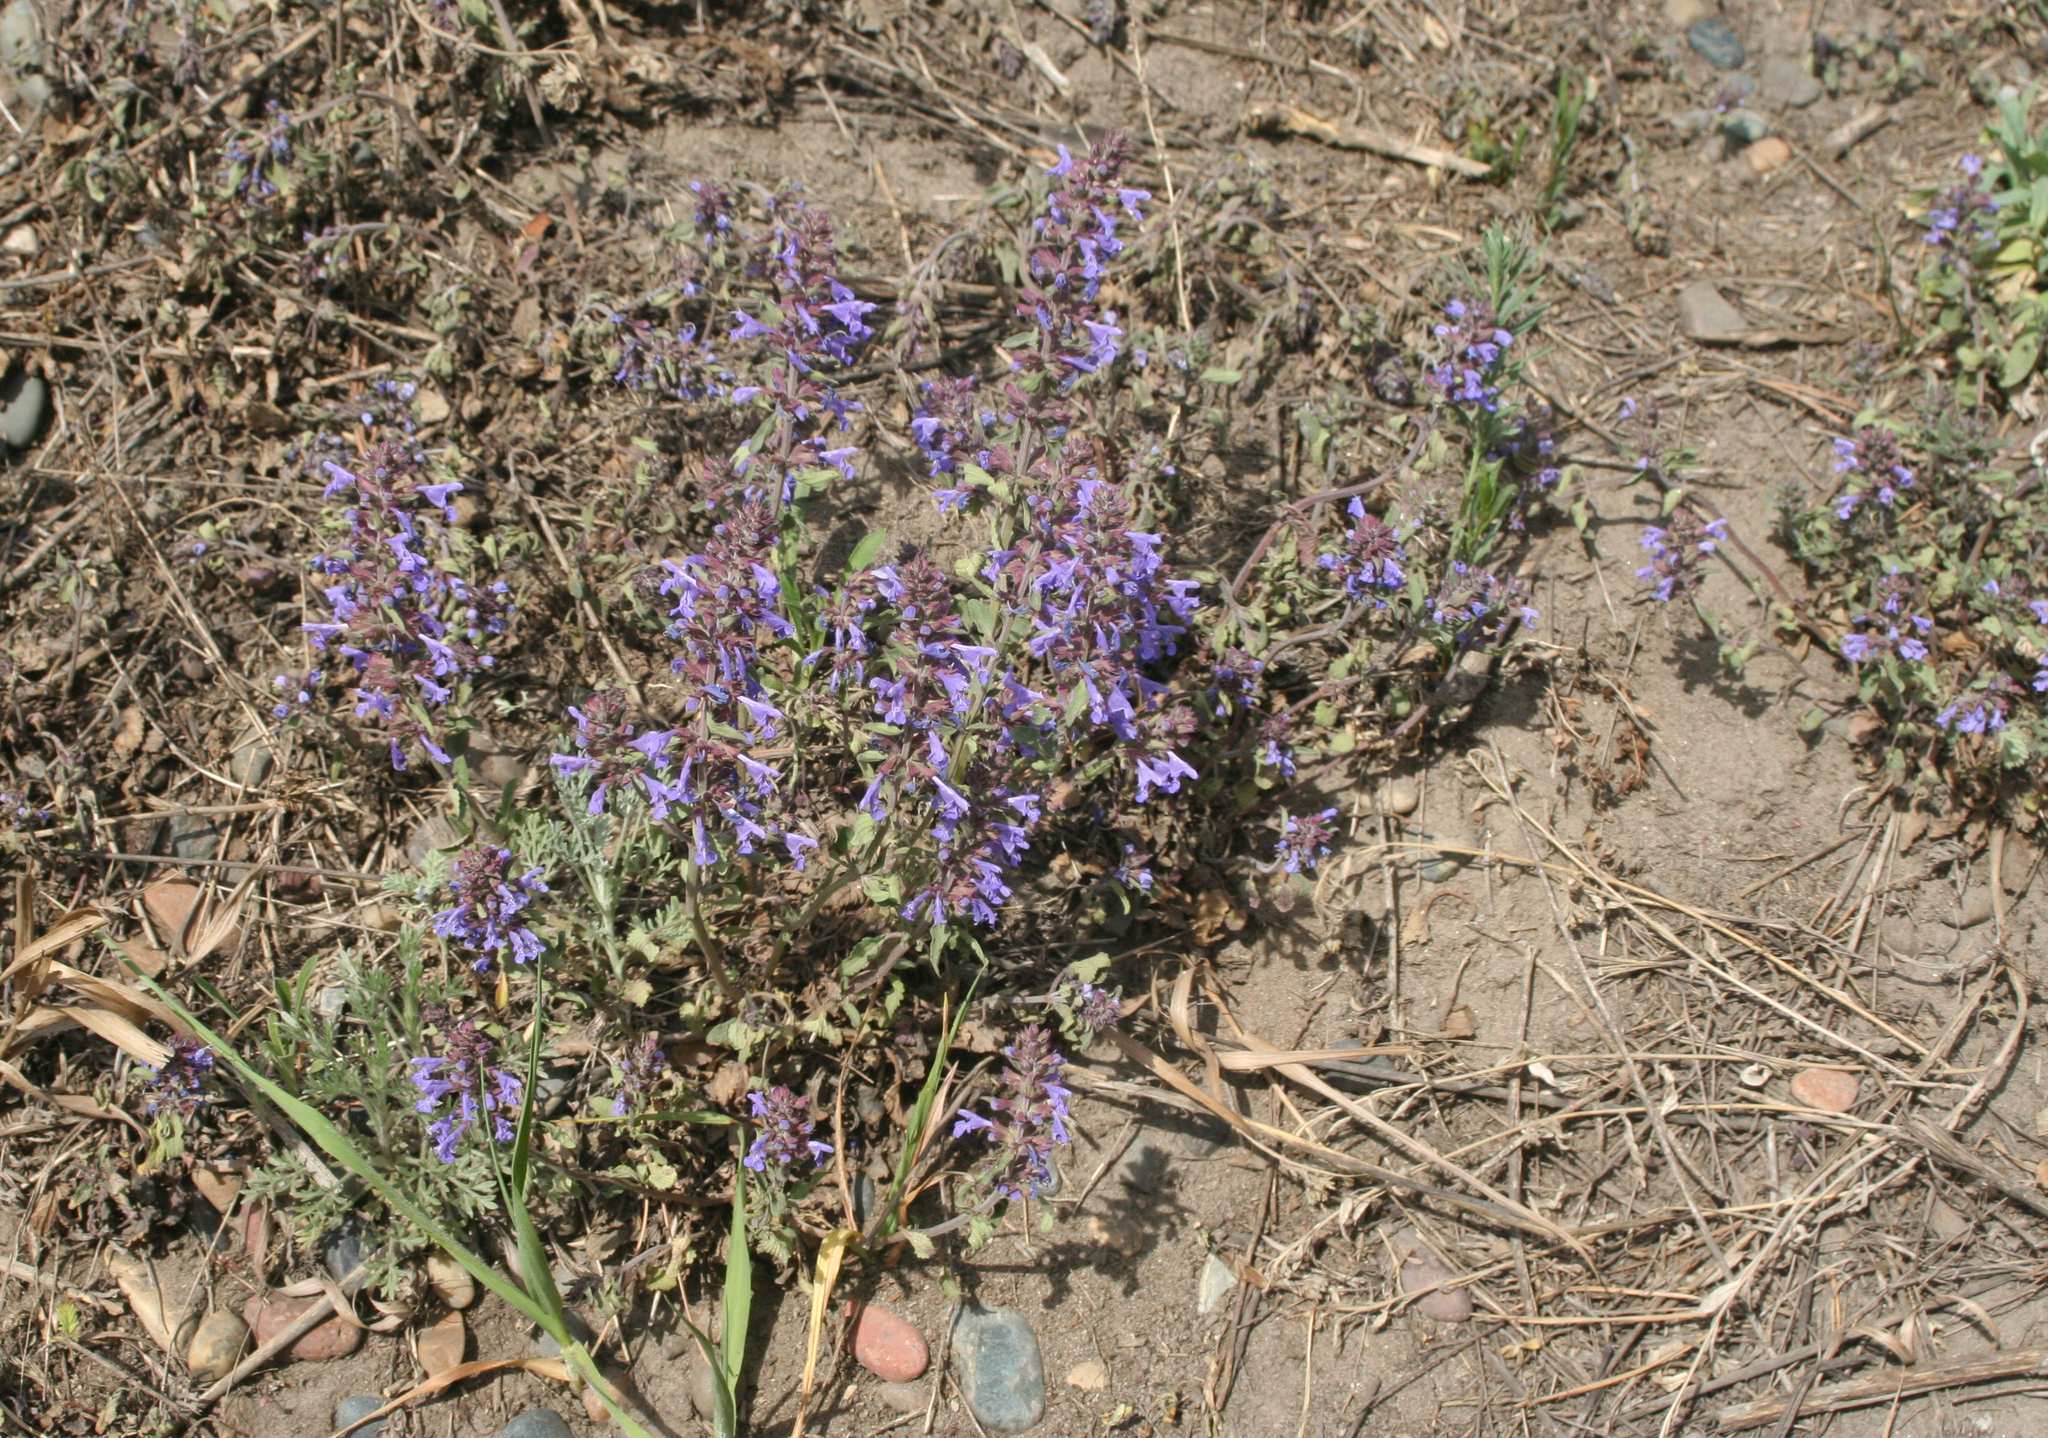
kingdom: Plantae
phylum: Tracheophyta
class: Magnoliopsida
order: Lamiales
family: Lamiaceae
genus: Dracocephalum
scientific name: Dracocephalum nutans
